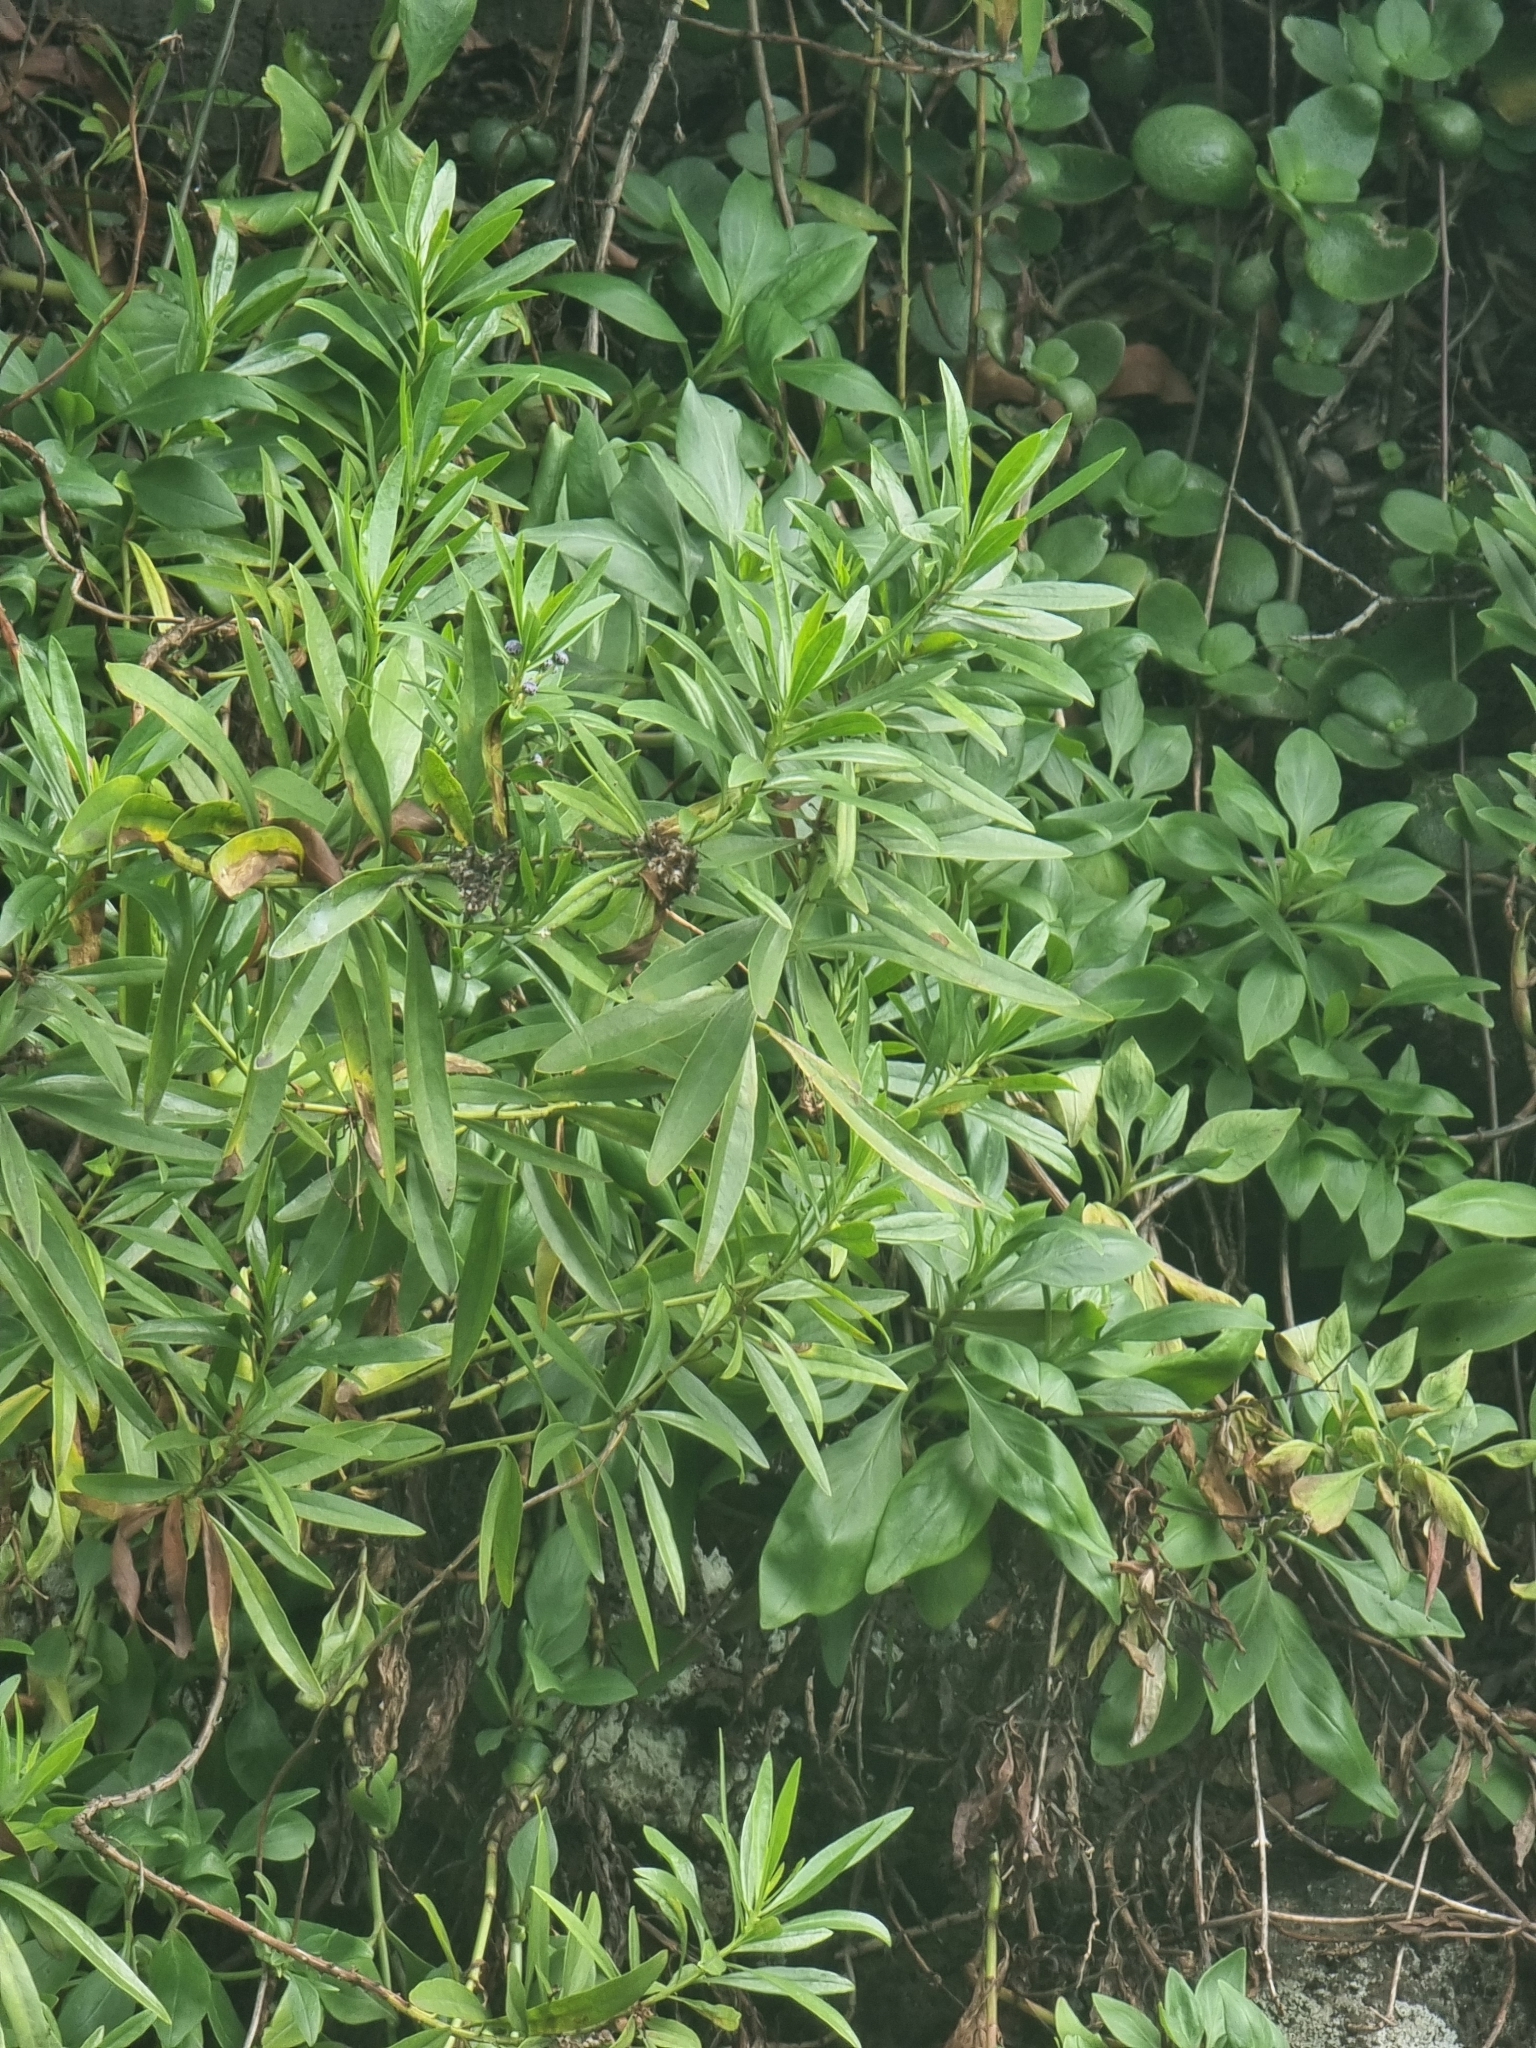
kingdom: Plantae
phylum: Tracheophyta
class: Magnoliopsida
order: Lamiales
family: Plantaginaceae
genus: Globularia
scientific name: Globularia salicina
